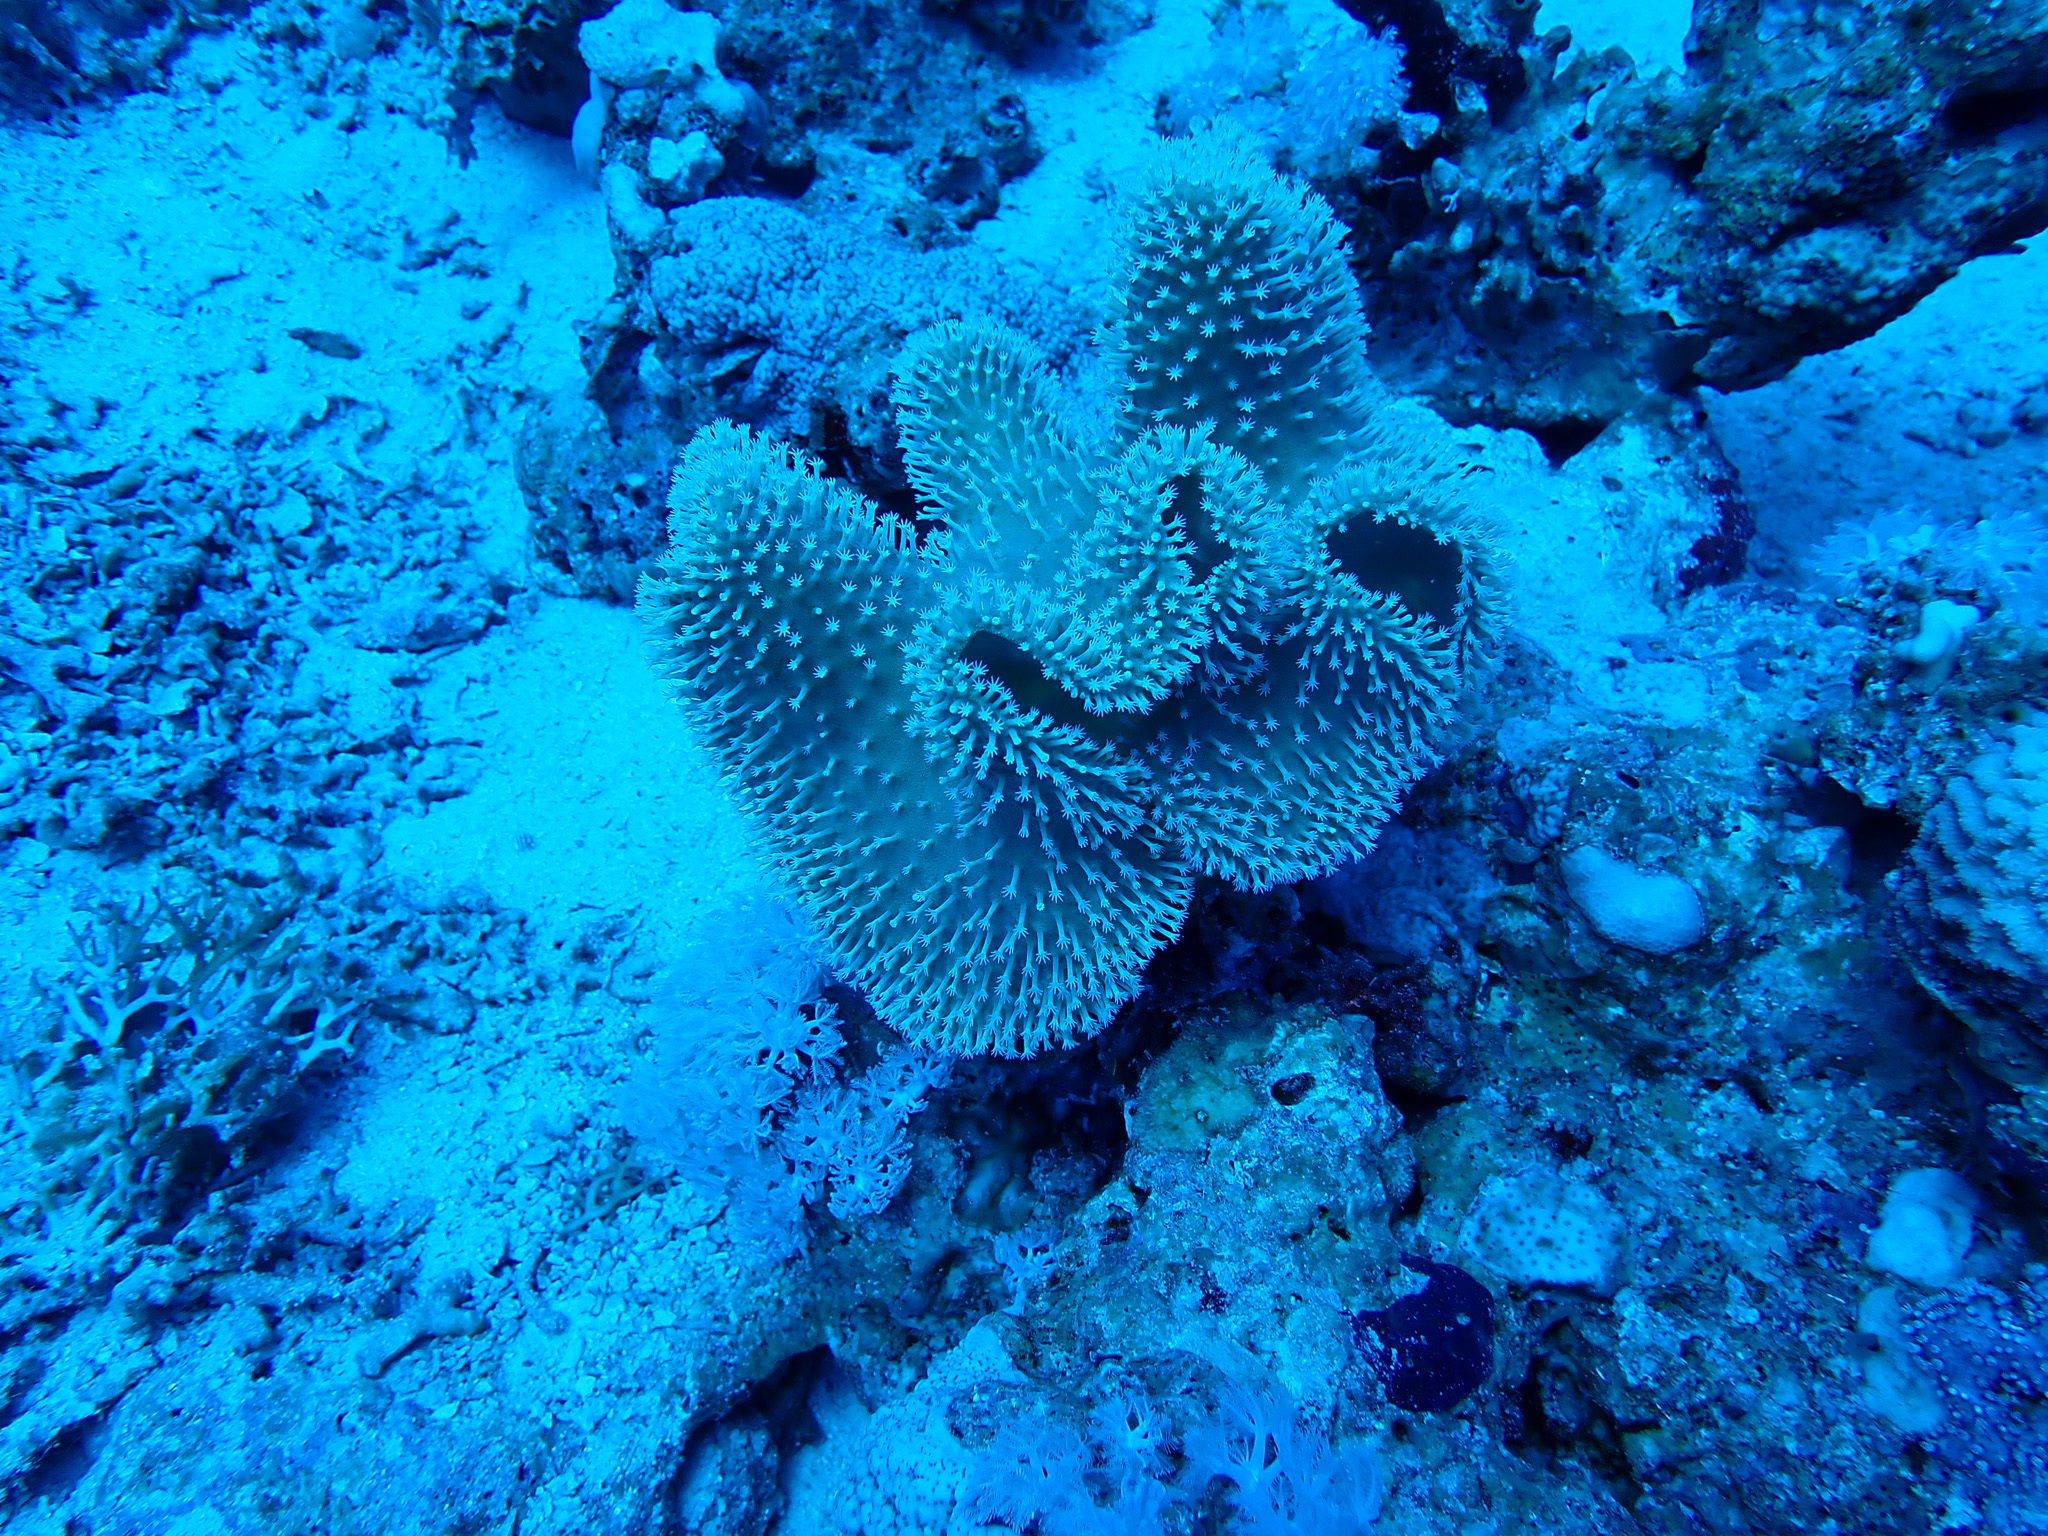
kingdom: Animalia
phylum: Cnidaria
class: Anthozoa
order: Malacalcyonacea
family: Sarcophytidae
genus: Sarcophyton
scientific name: Sarcophyton
